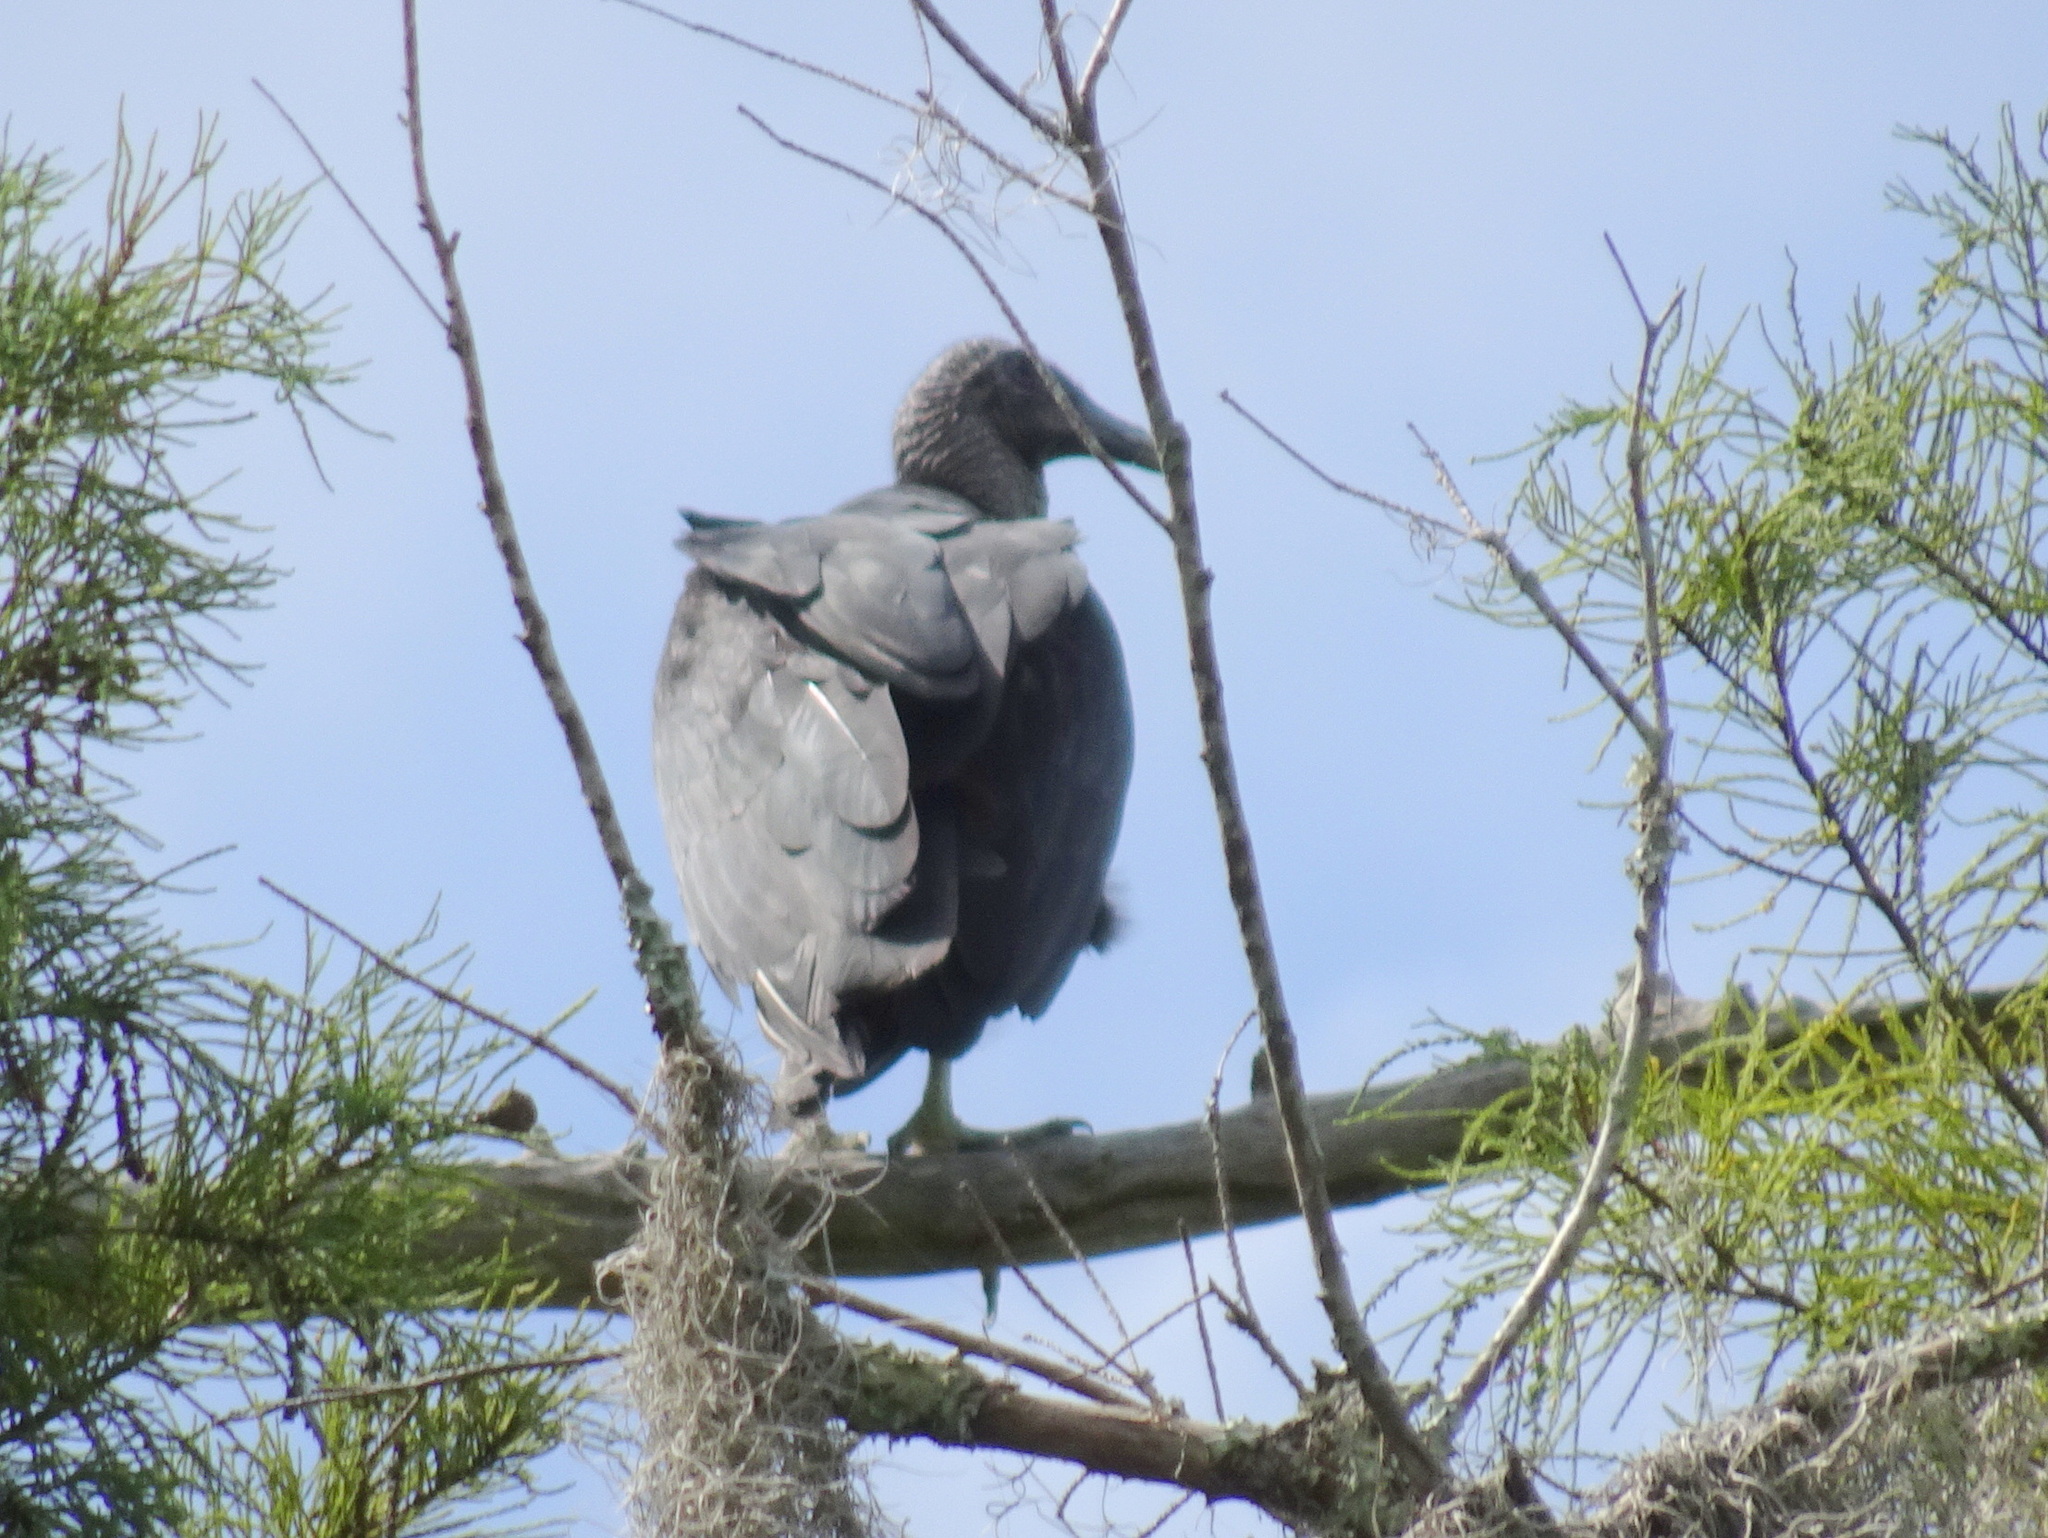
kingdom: Animalia
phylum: Chordata
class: Aves
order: Accipitriformes
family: Cathartidae
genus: Coragyps
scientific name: Coragyps atratus
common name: Black vulture
